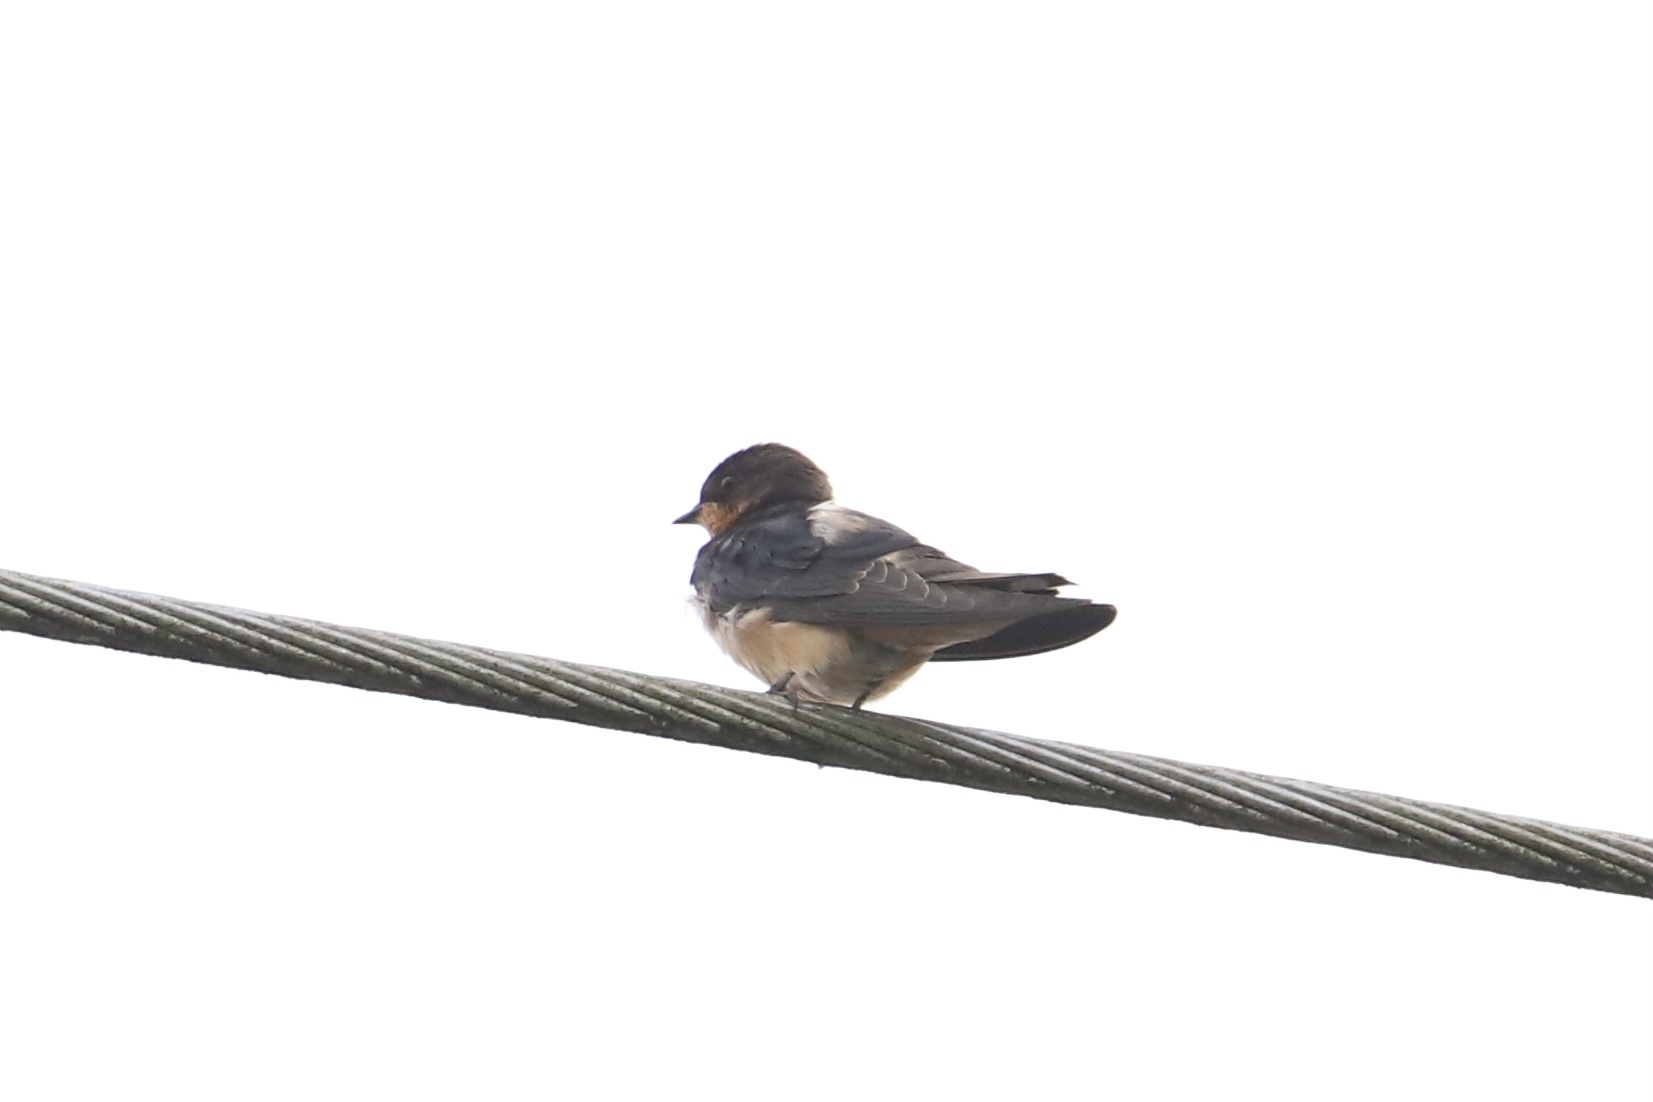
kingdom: Animalia
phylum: Chordata
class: Aves
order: Passeriformes
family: Hirundinidae
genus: Hirundo
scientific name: Hirundo rustica
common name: Barn swallow
